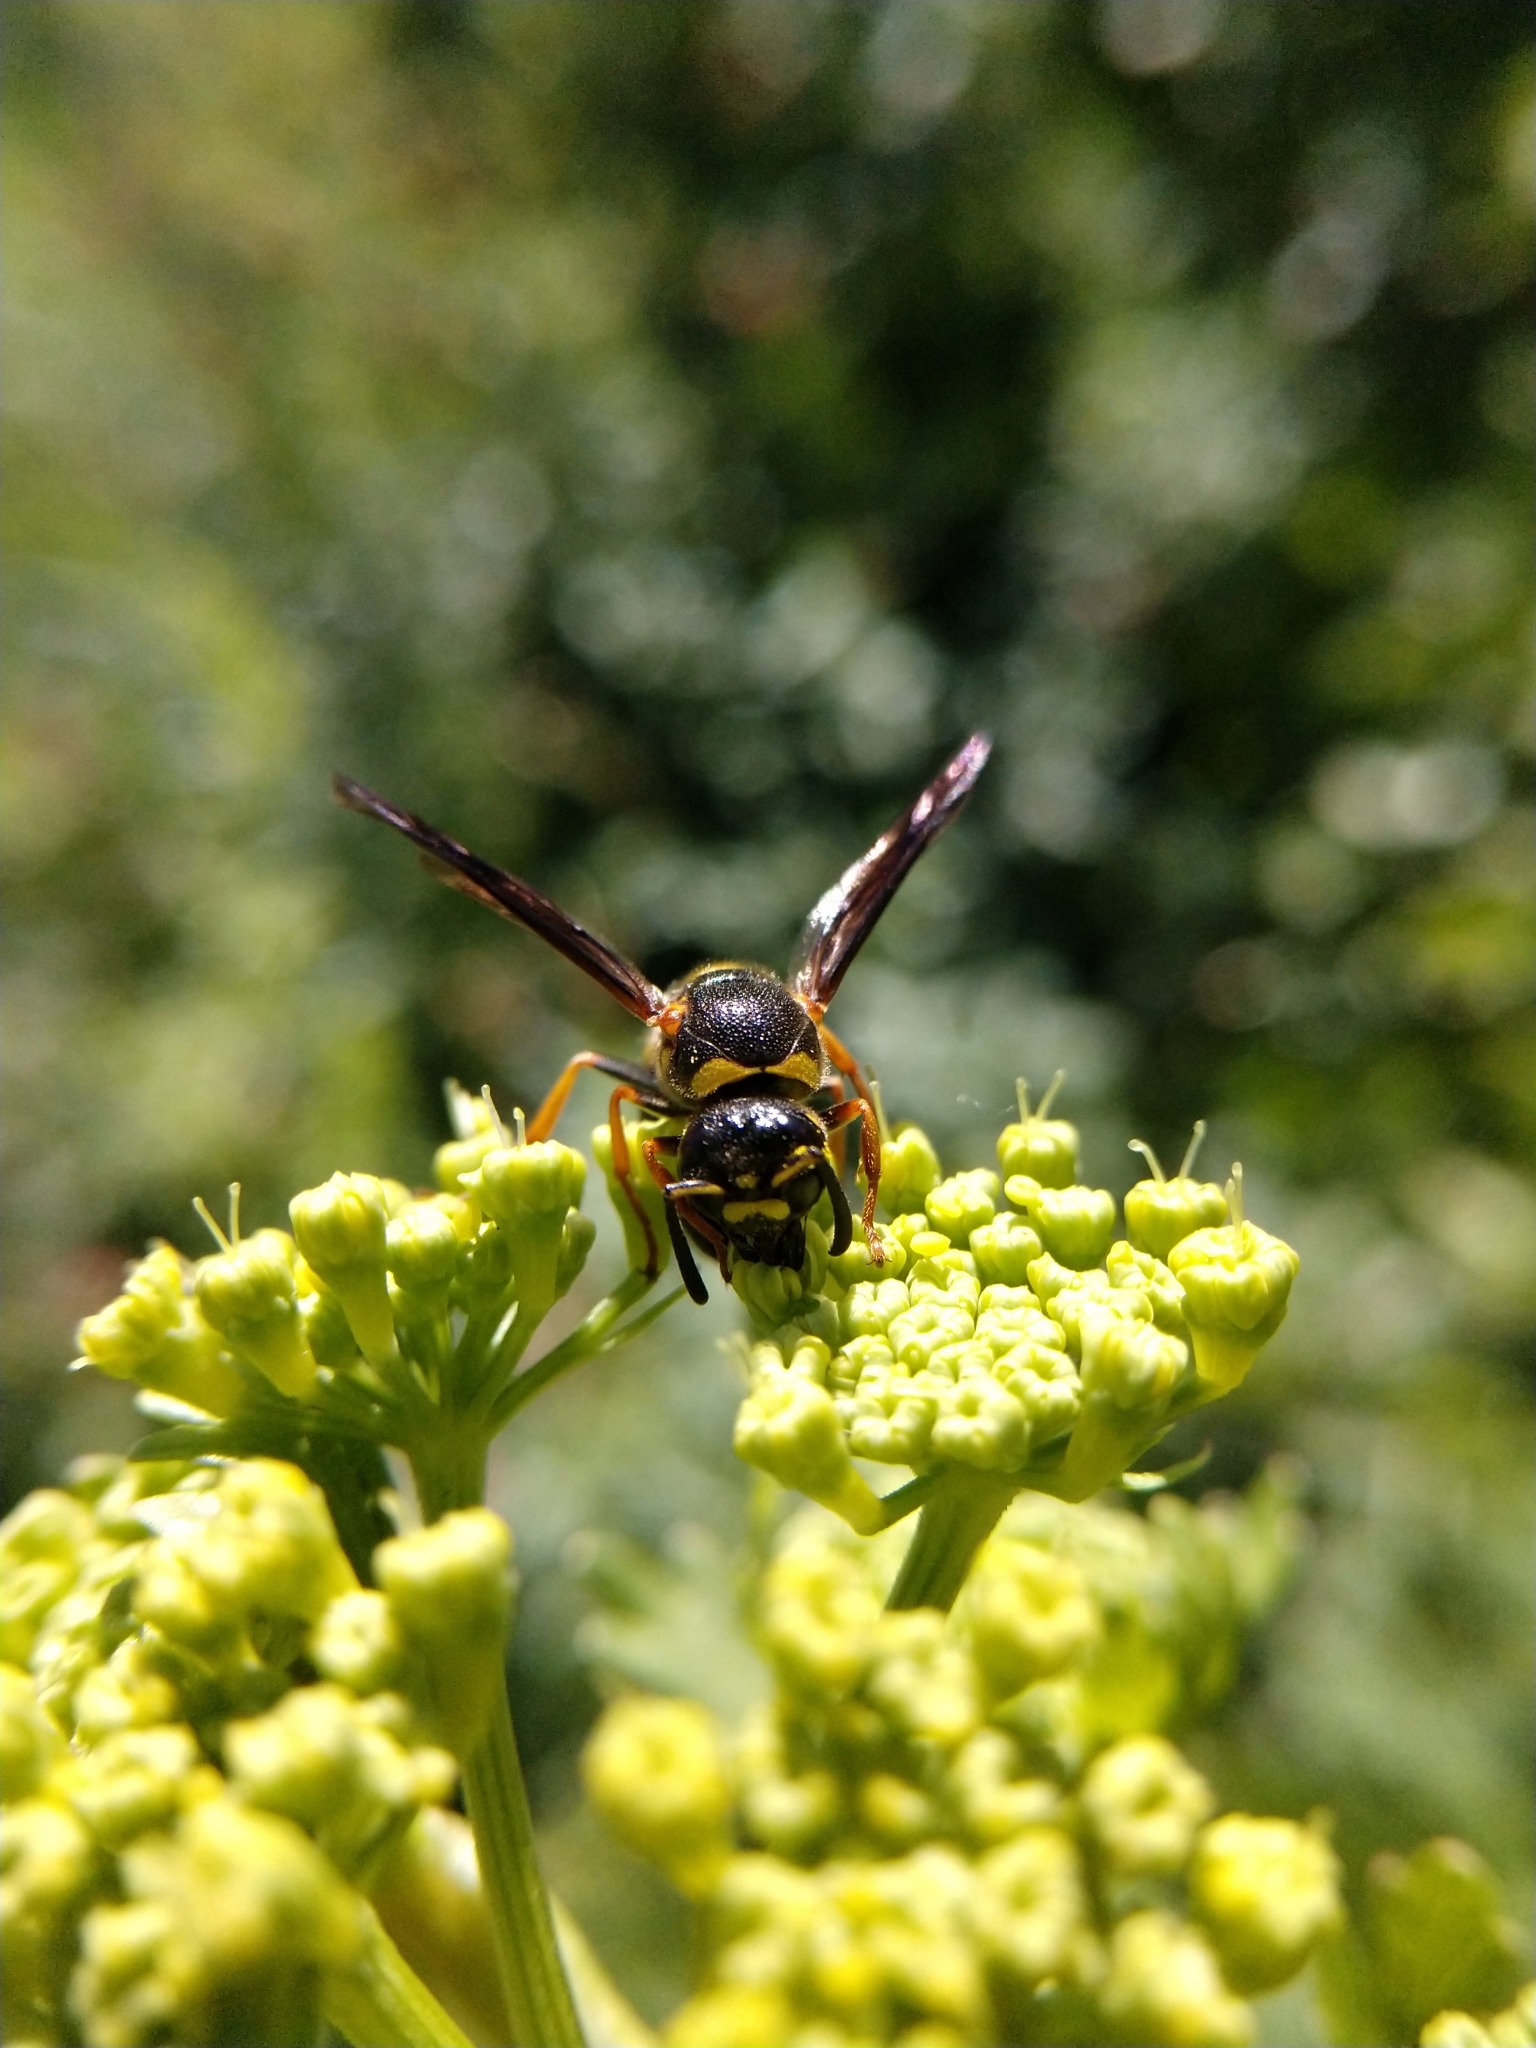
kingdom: Animalia
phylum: Arthropoda
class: Insecta
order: Hymenoptera
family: Eumenidae
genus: Euodynerus
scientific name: Euodynerus foraminatus
